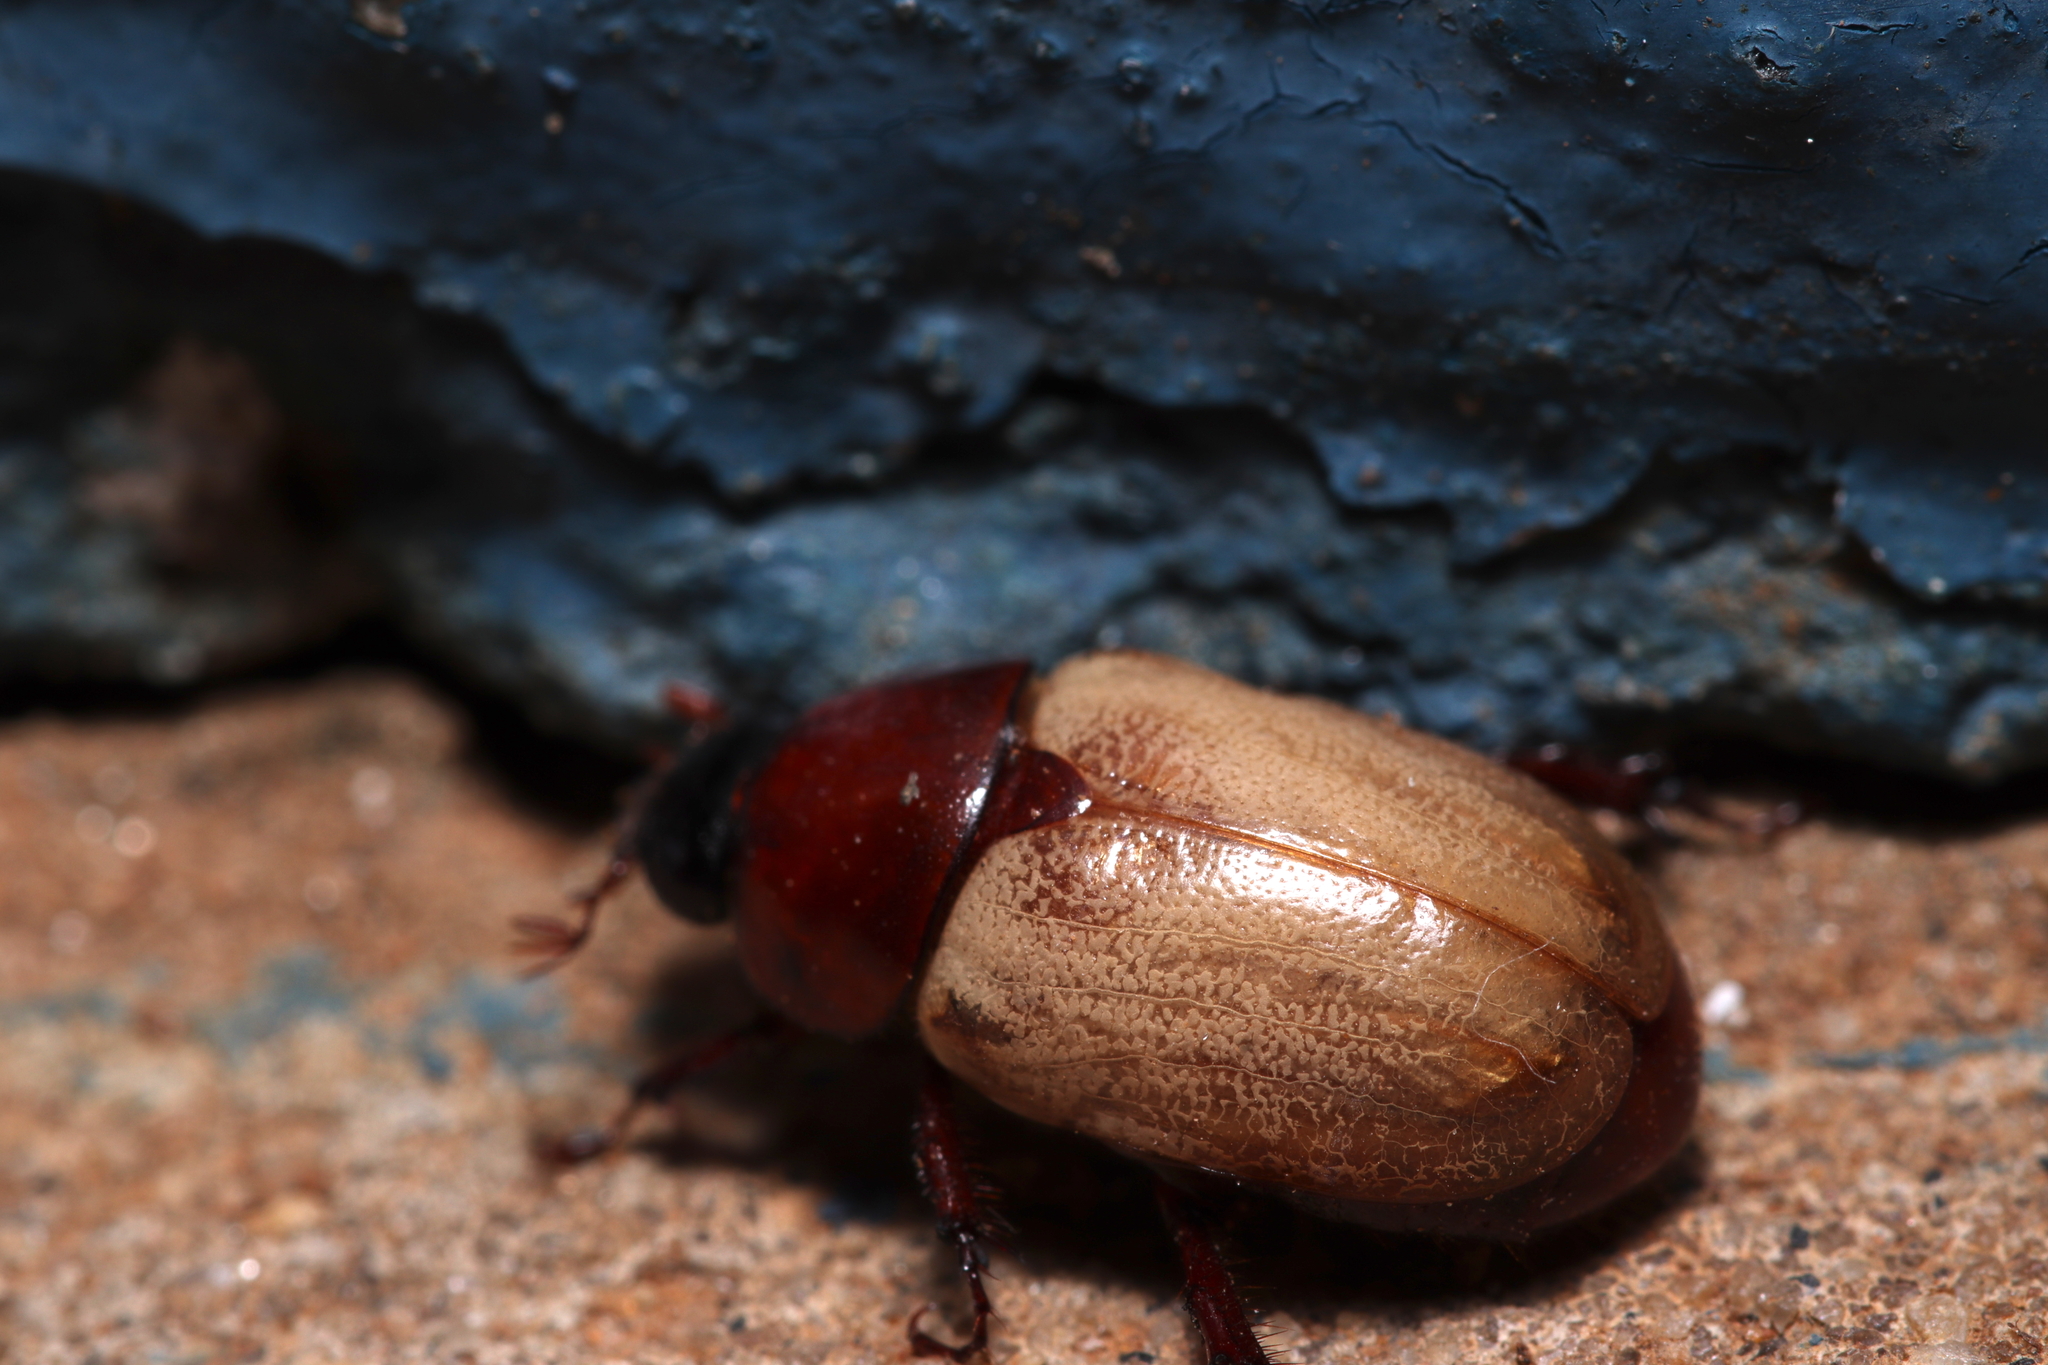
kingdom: Animalia
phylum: Arthropoda
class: Insecta
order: Coleoptera
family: Scarabaeidae
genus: Cyclocephala
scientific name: Cyclocephala melanocephala
